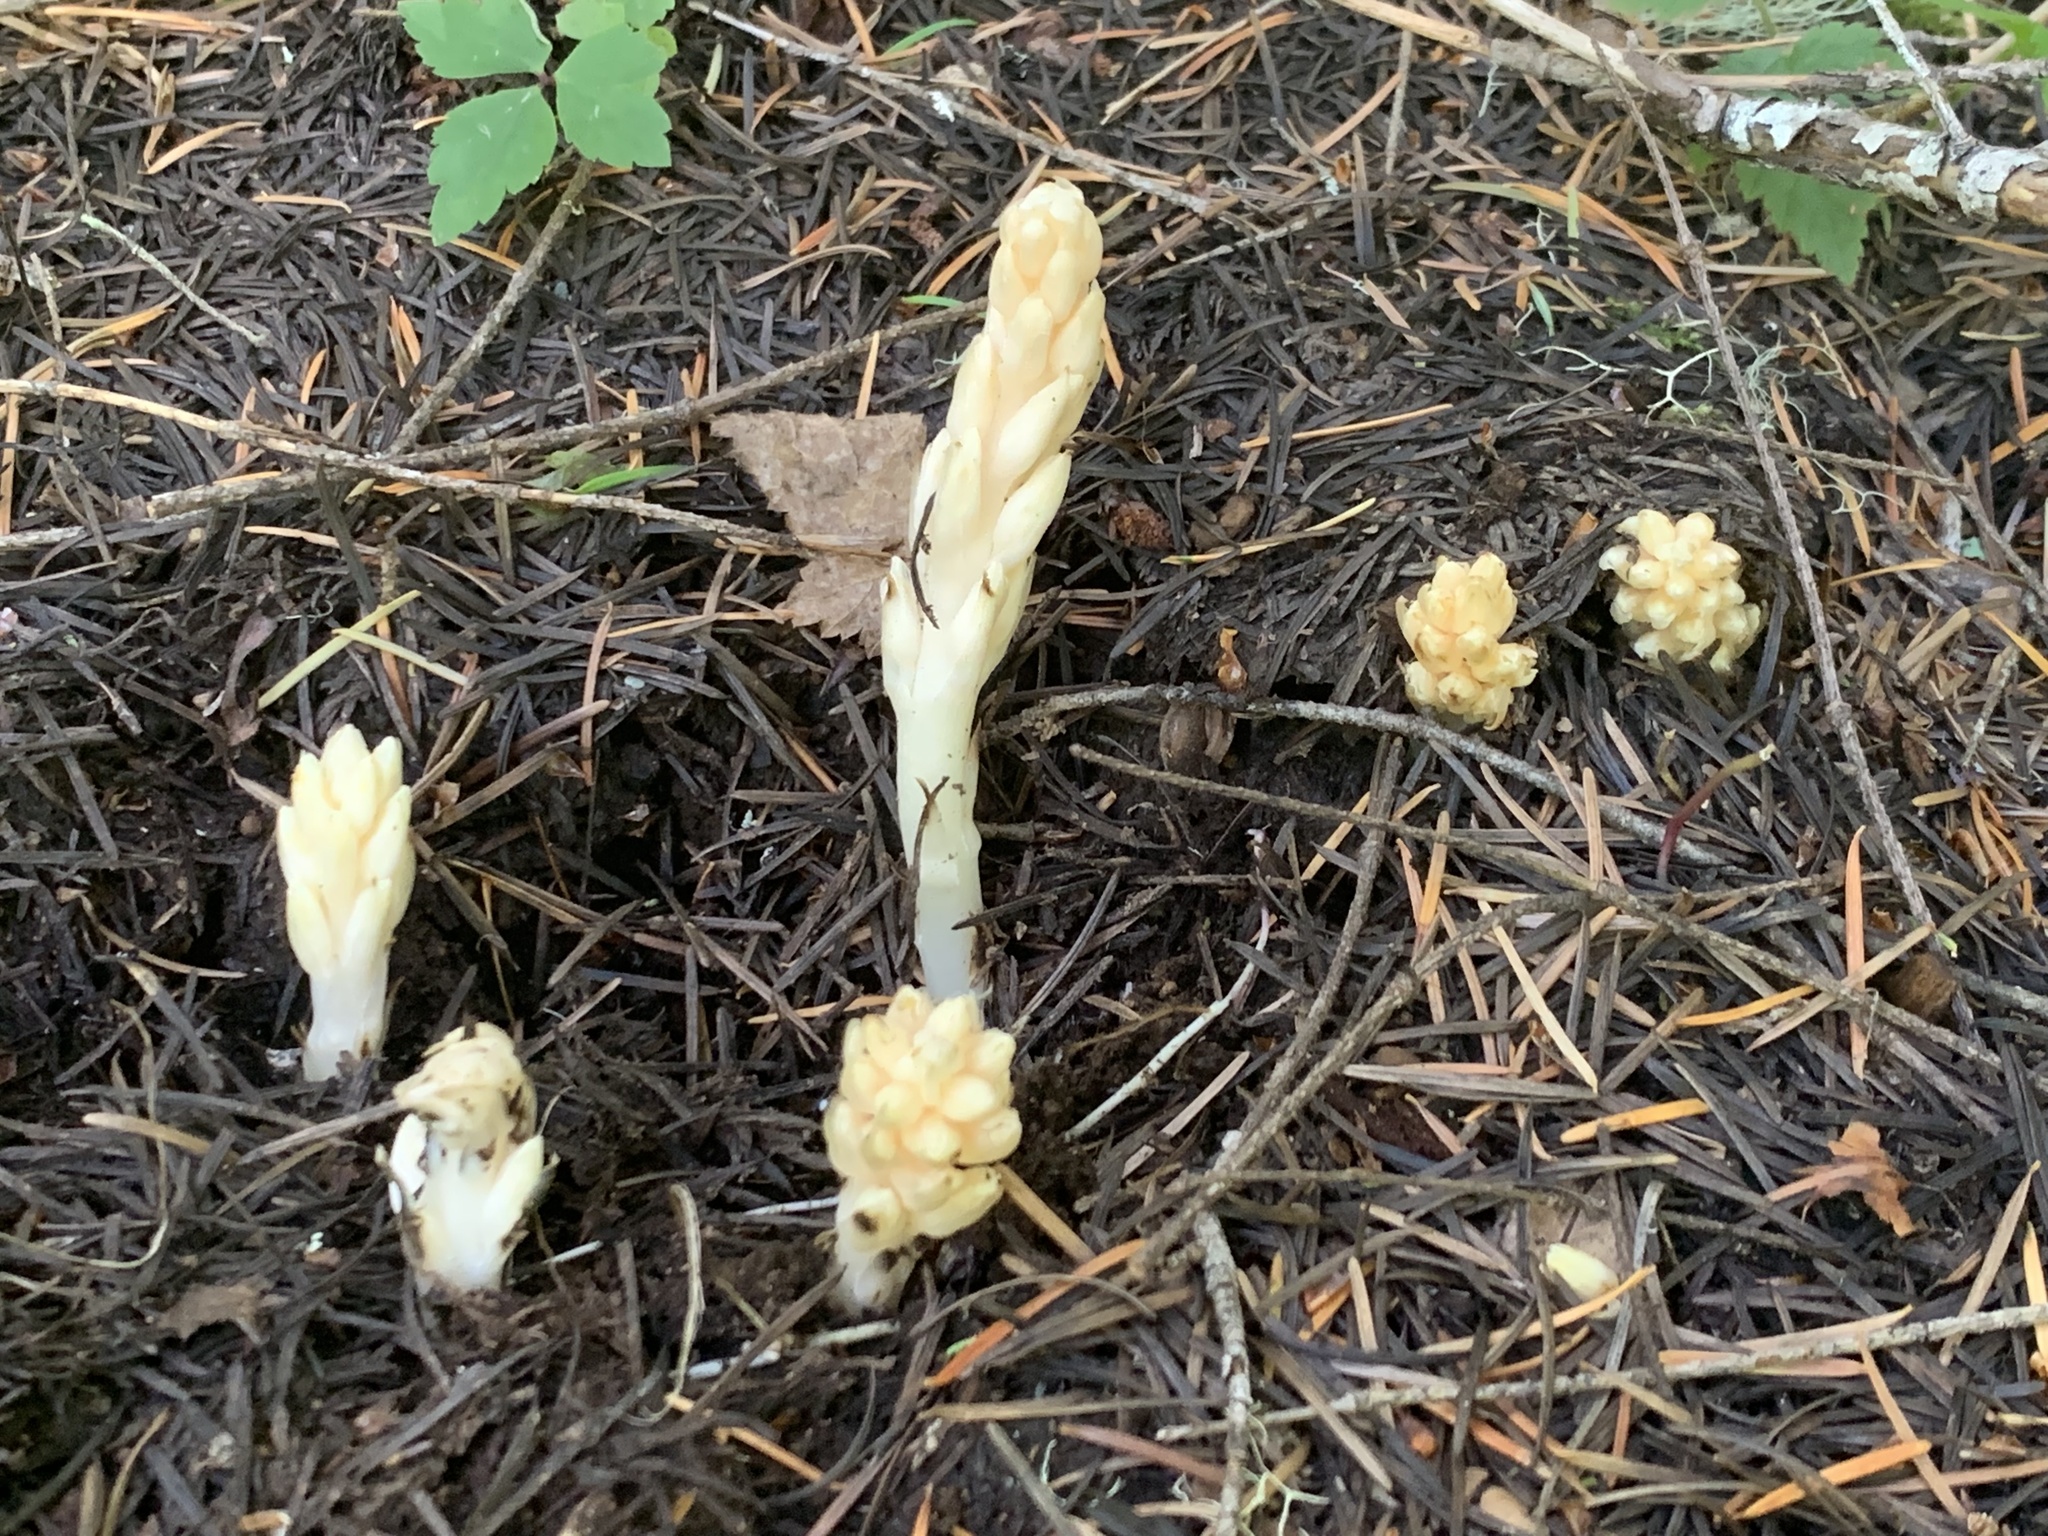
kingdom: Plantae
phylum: Tracheophyta
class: Magnoliopsida
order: Ericales
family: Ericaceae
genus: Pleuricospora
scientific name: Pleuricospora fimbriolata
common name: Fringed pinesap
